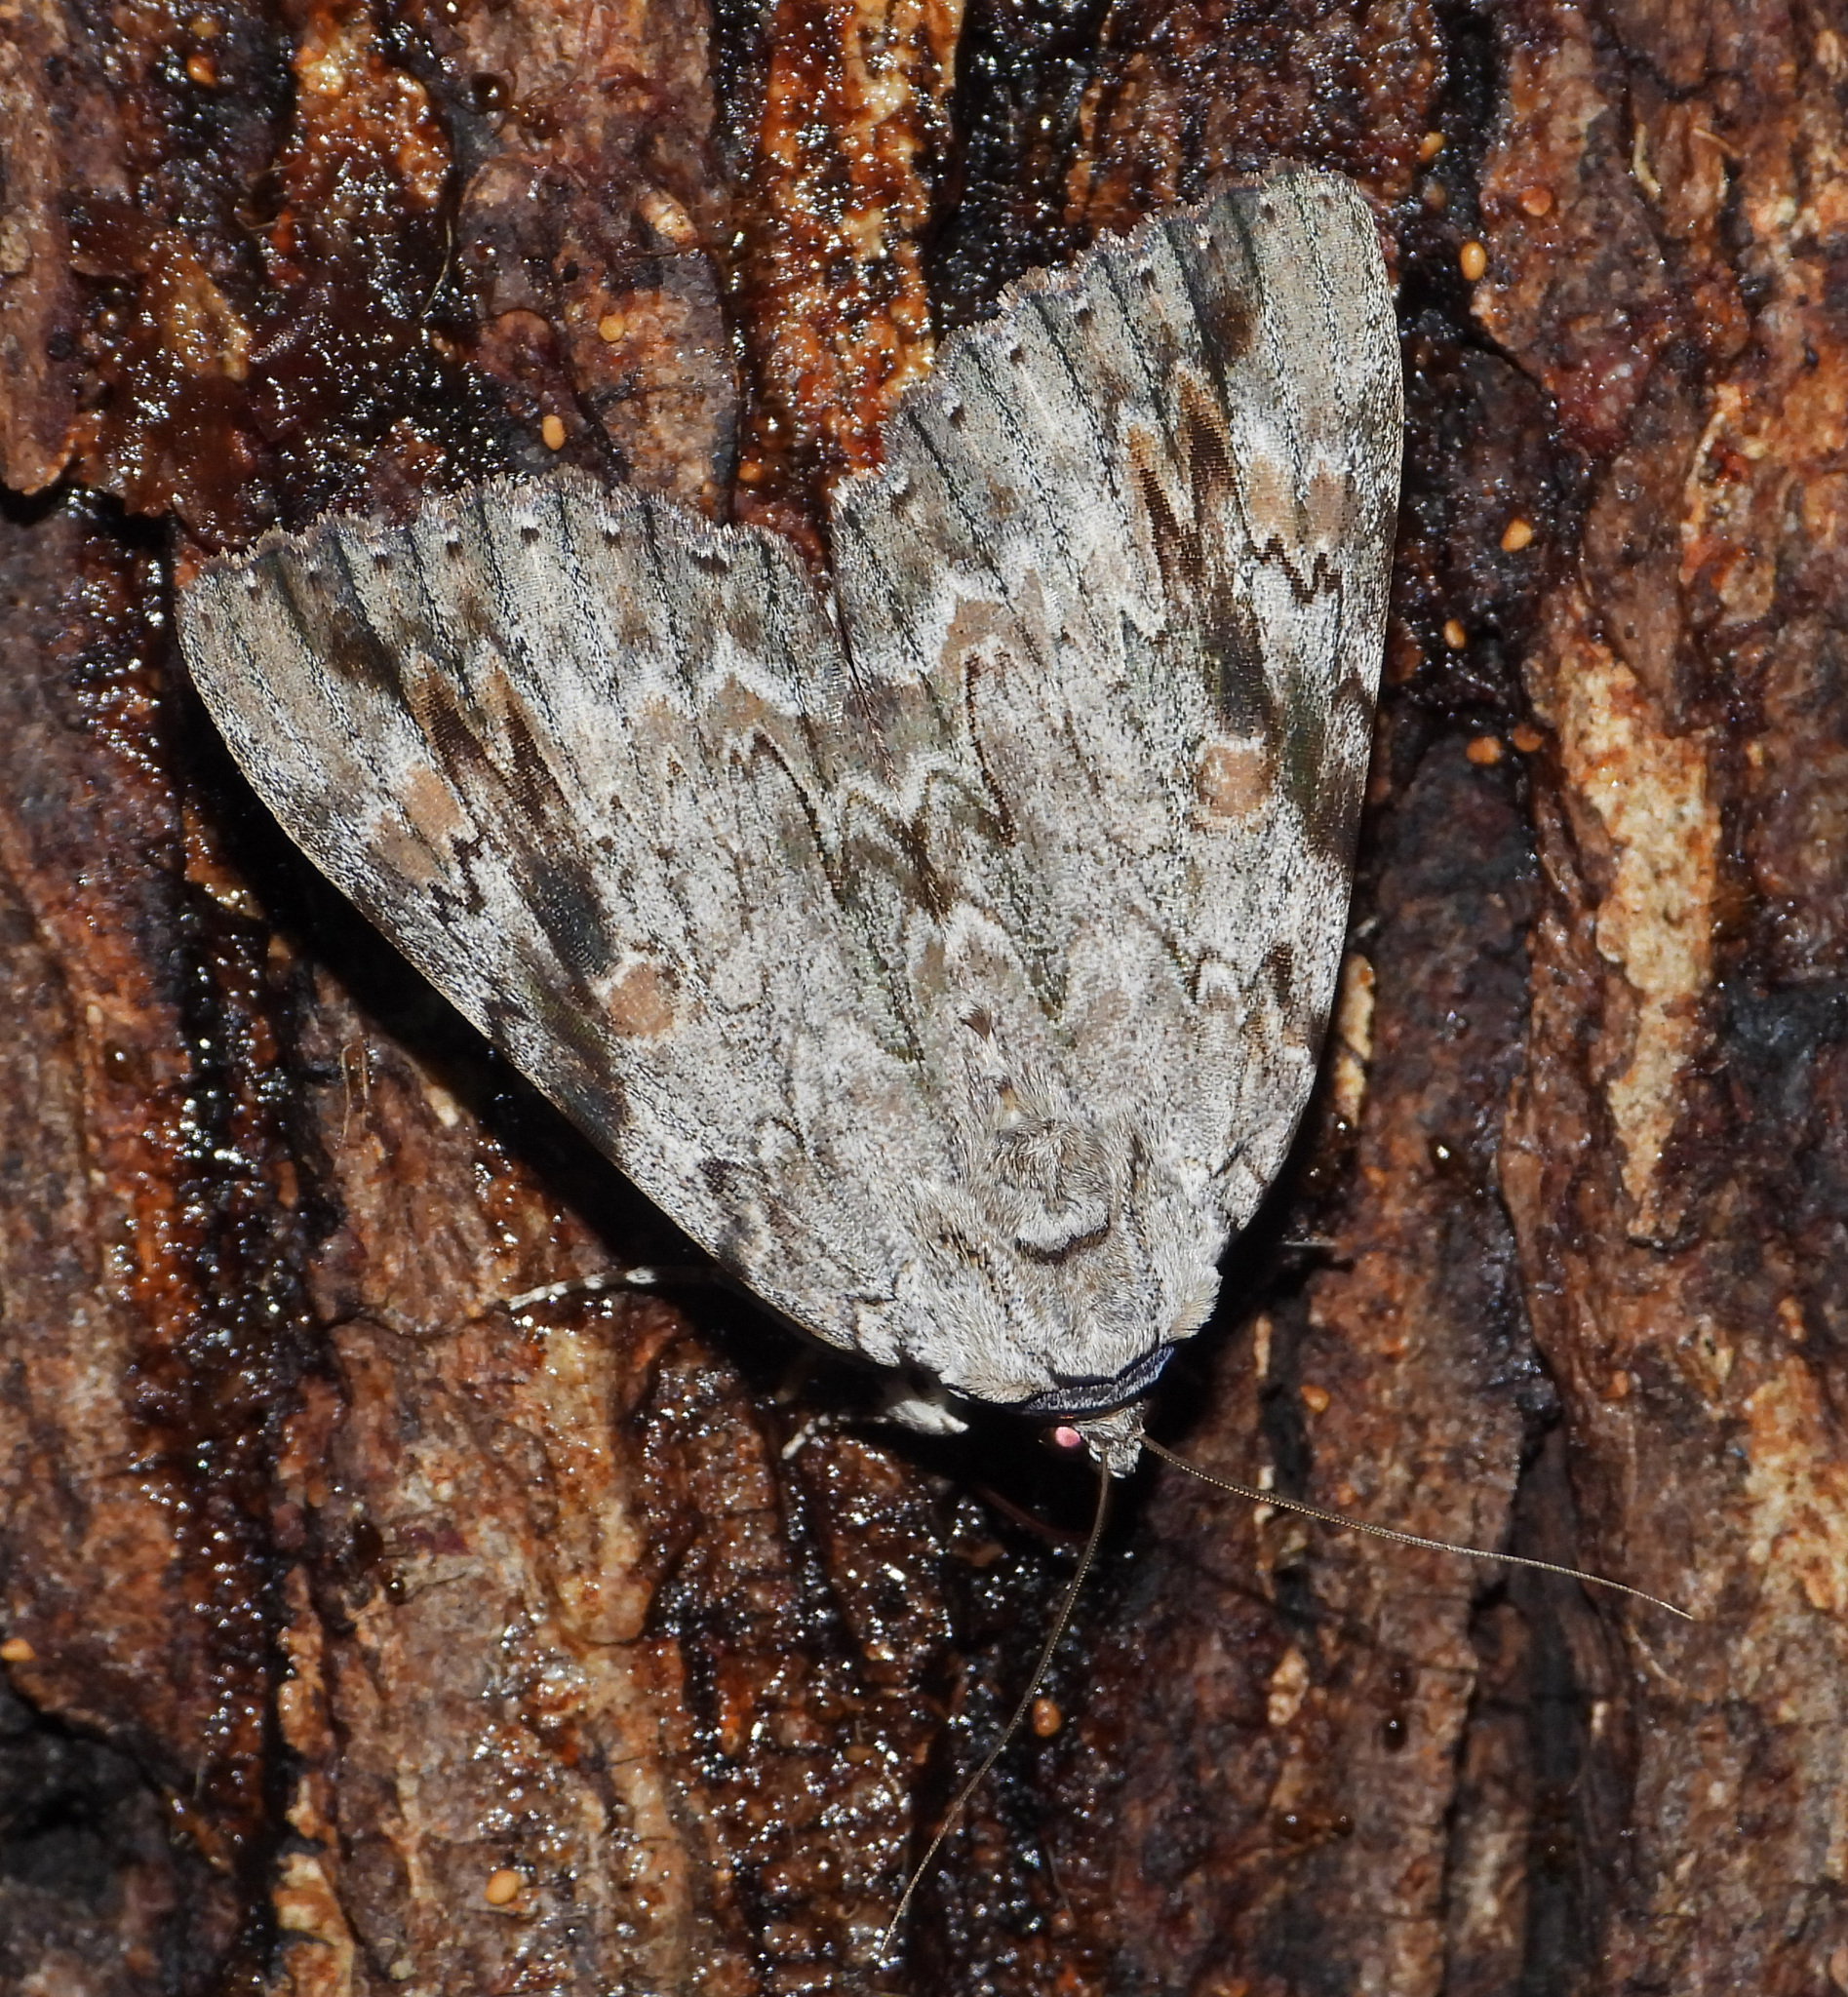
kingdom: Animalia
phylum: Arthropoda
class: Insecta
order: Lepidoptera
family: Erebidae
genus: Catocala
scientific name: Catocala maestosa
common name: Sad underwing
